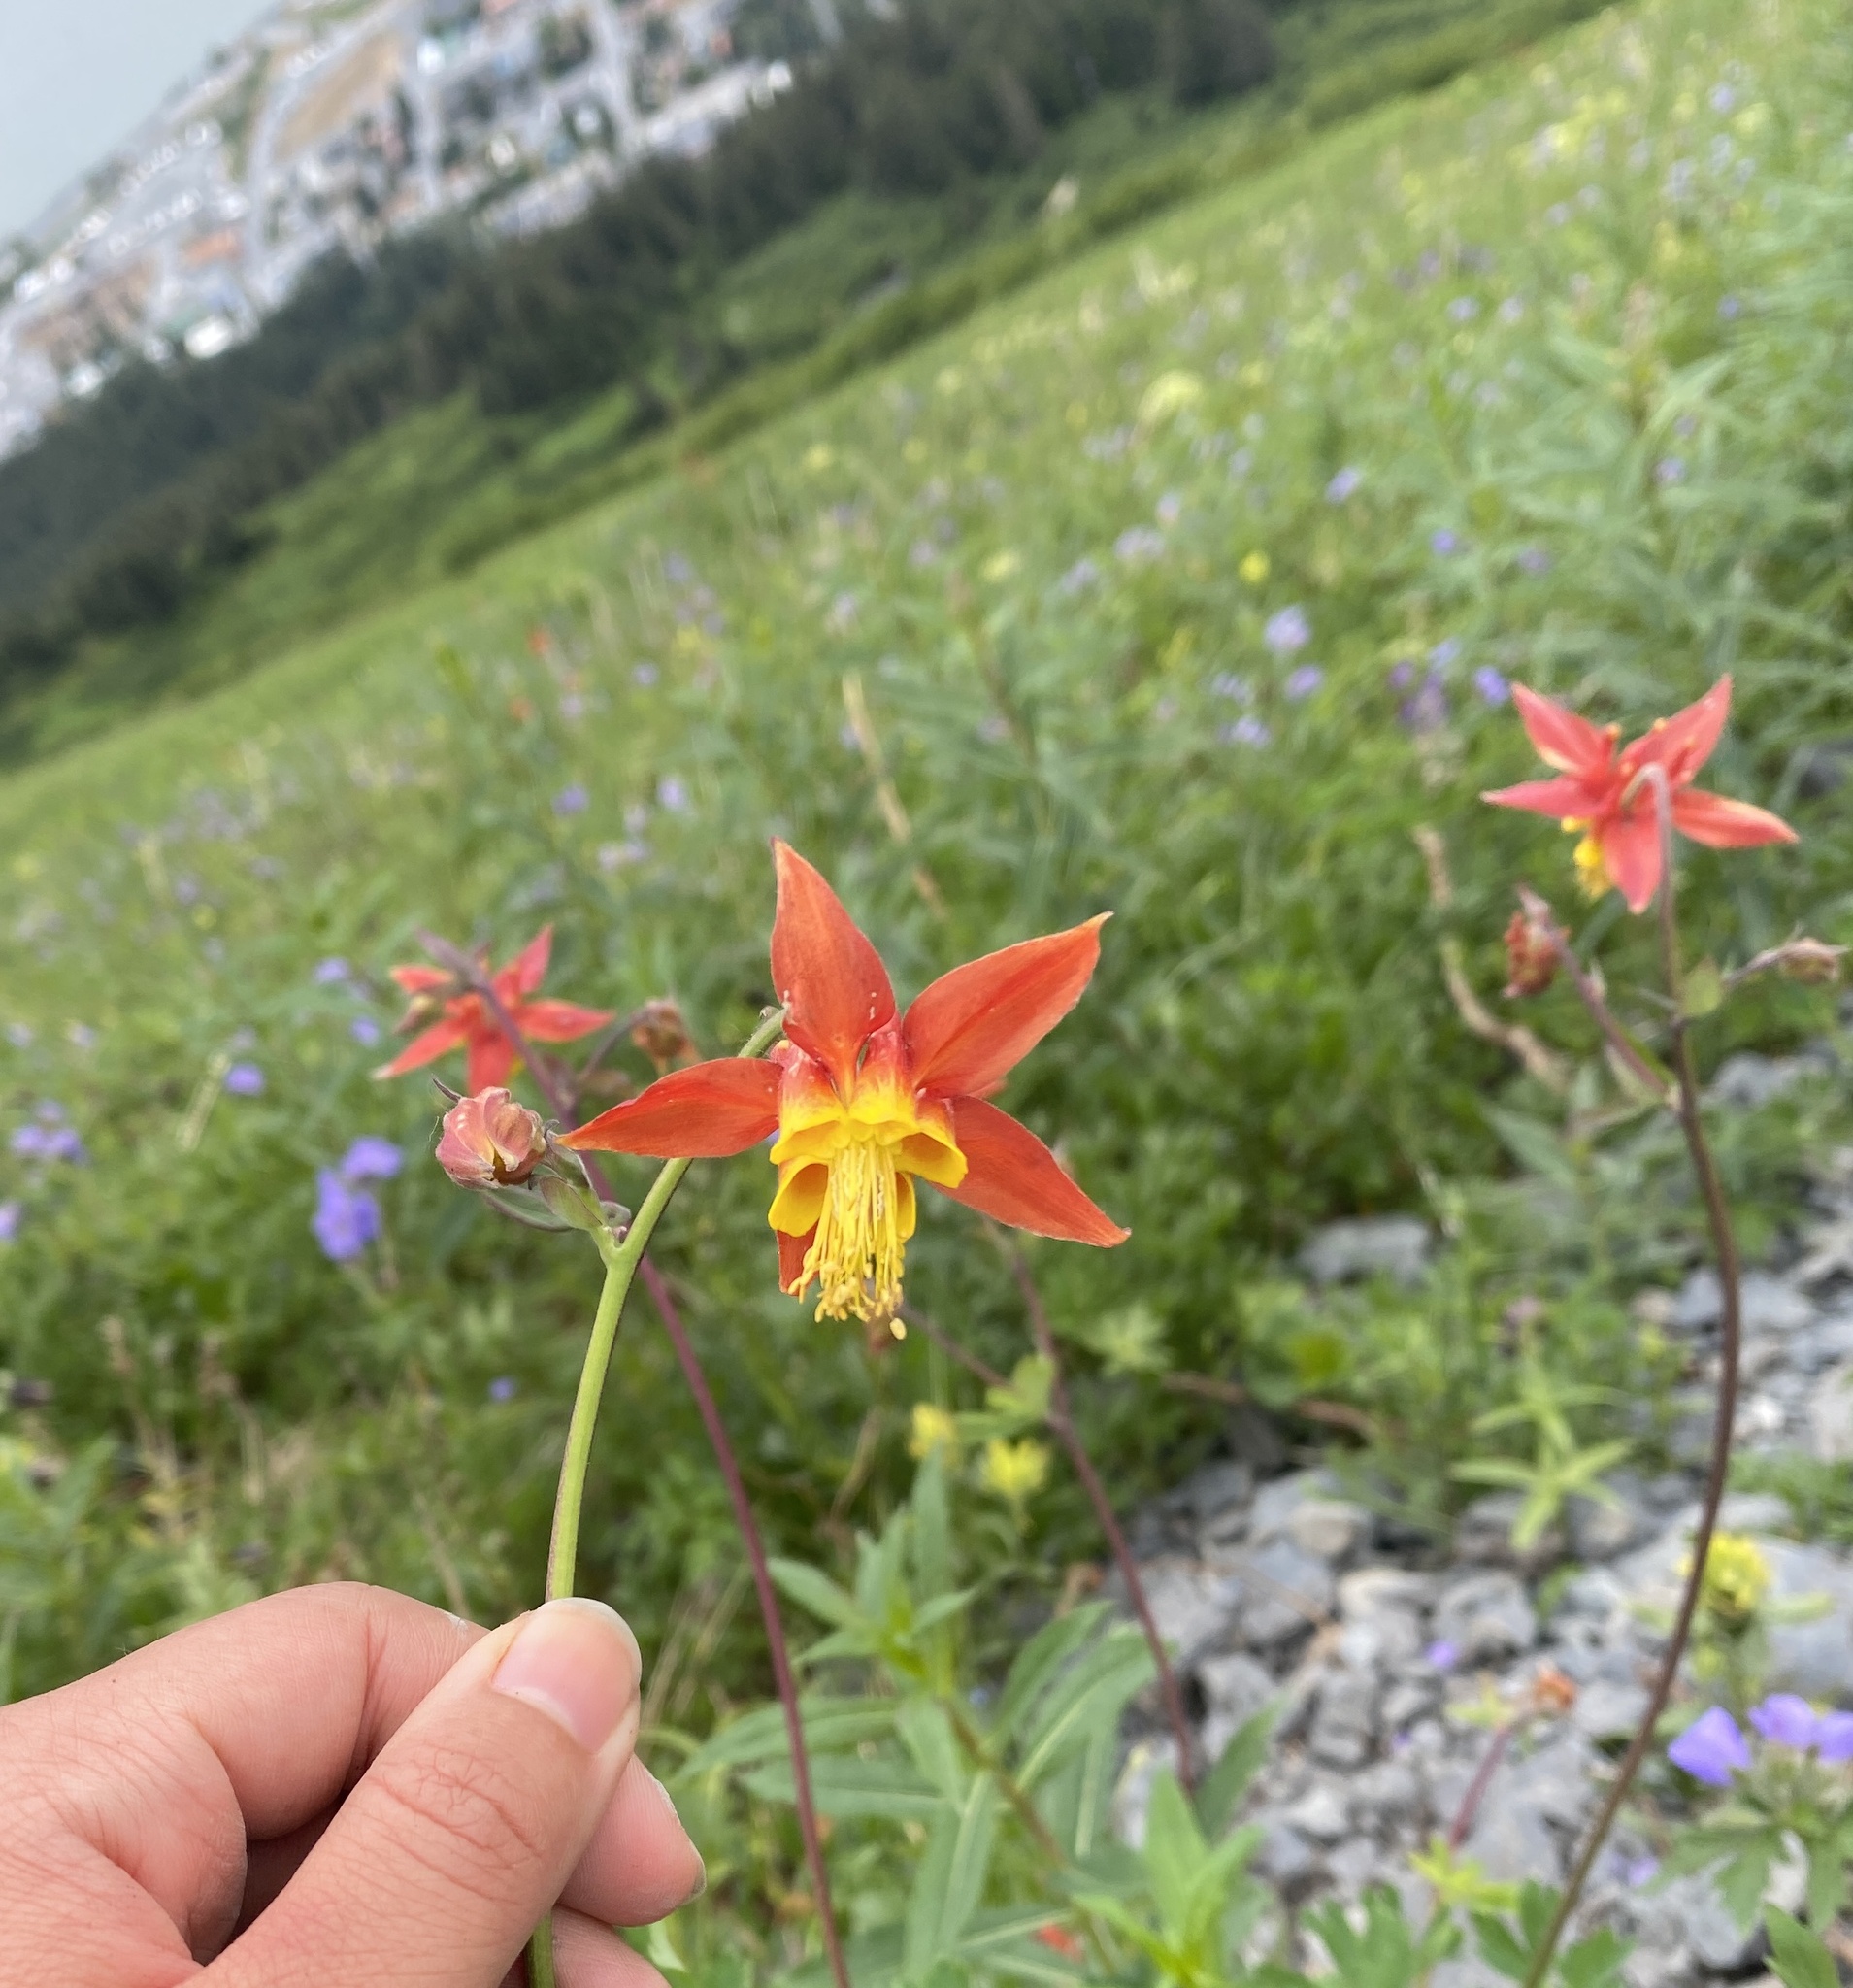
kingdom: Plantae
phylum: Tracheophyta
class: Magnoliopsida
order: Ranunculales
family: Ranunculaceae
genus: Aquilegia
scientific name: Aquilegia formosa
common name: Sitka columbine
